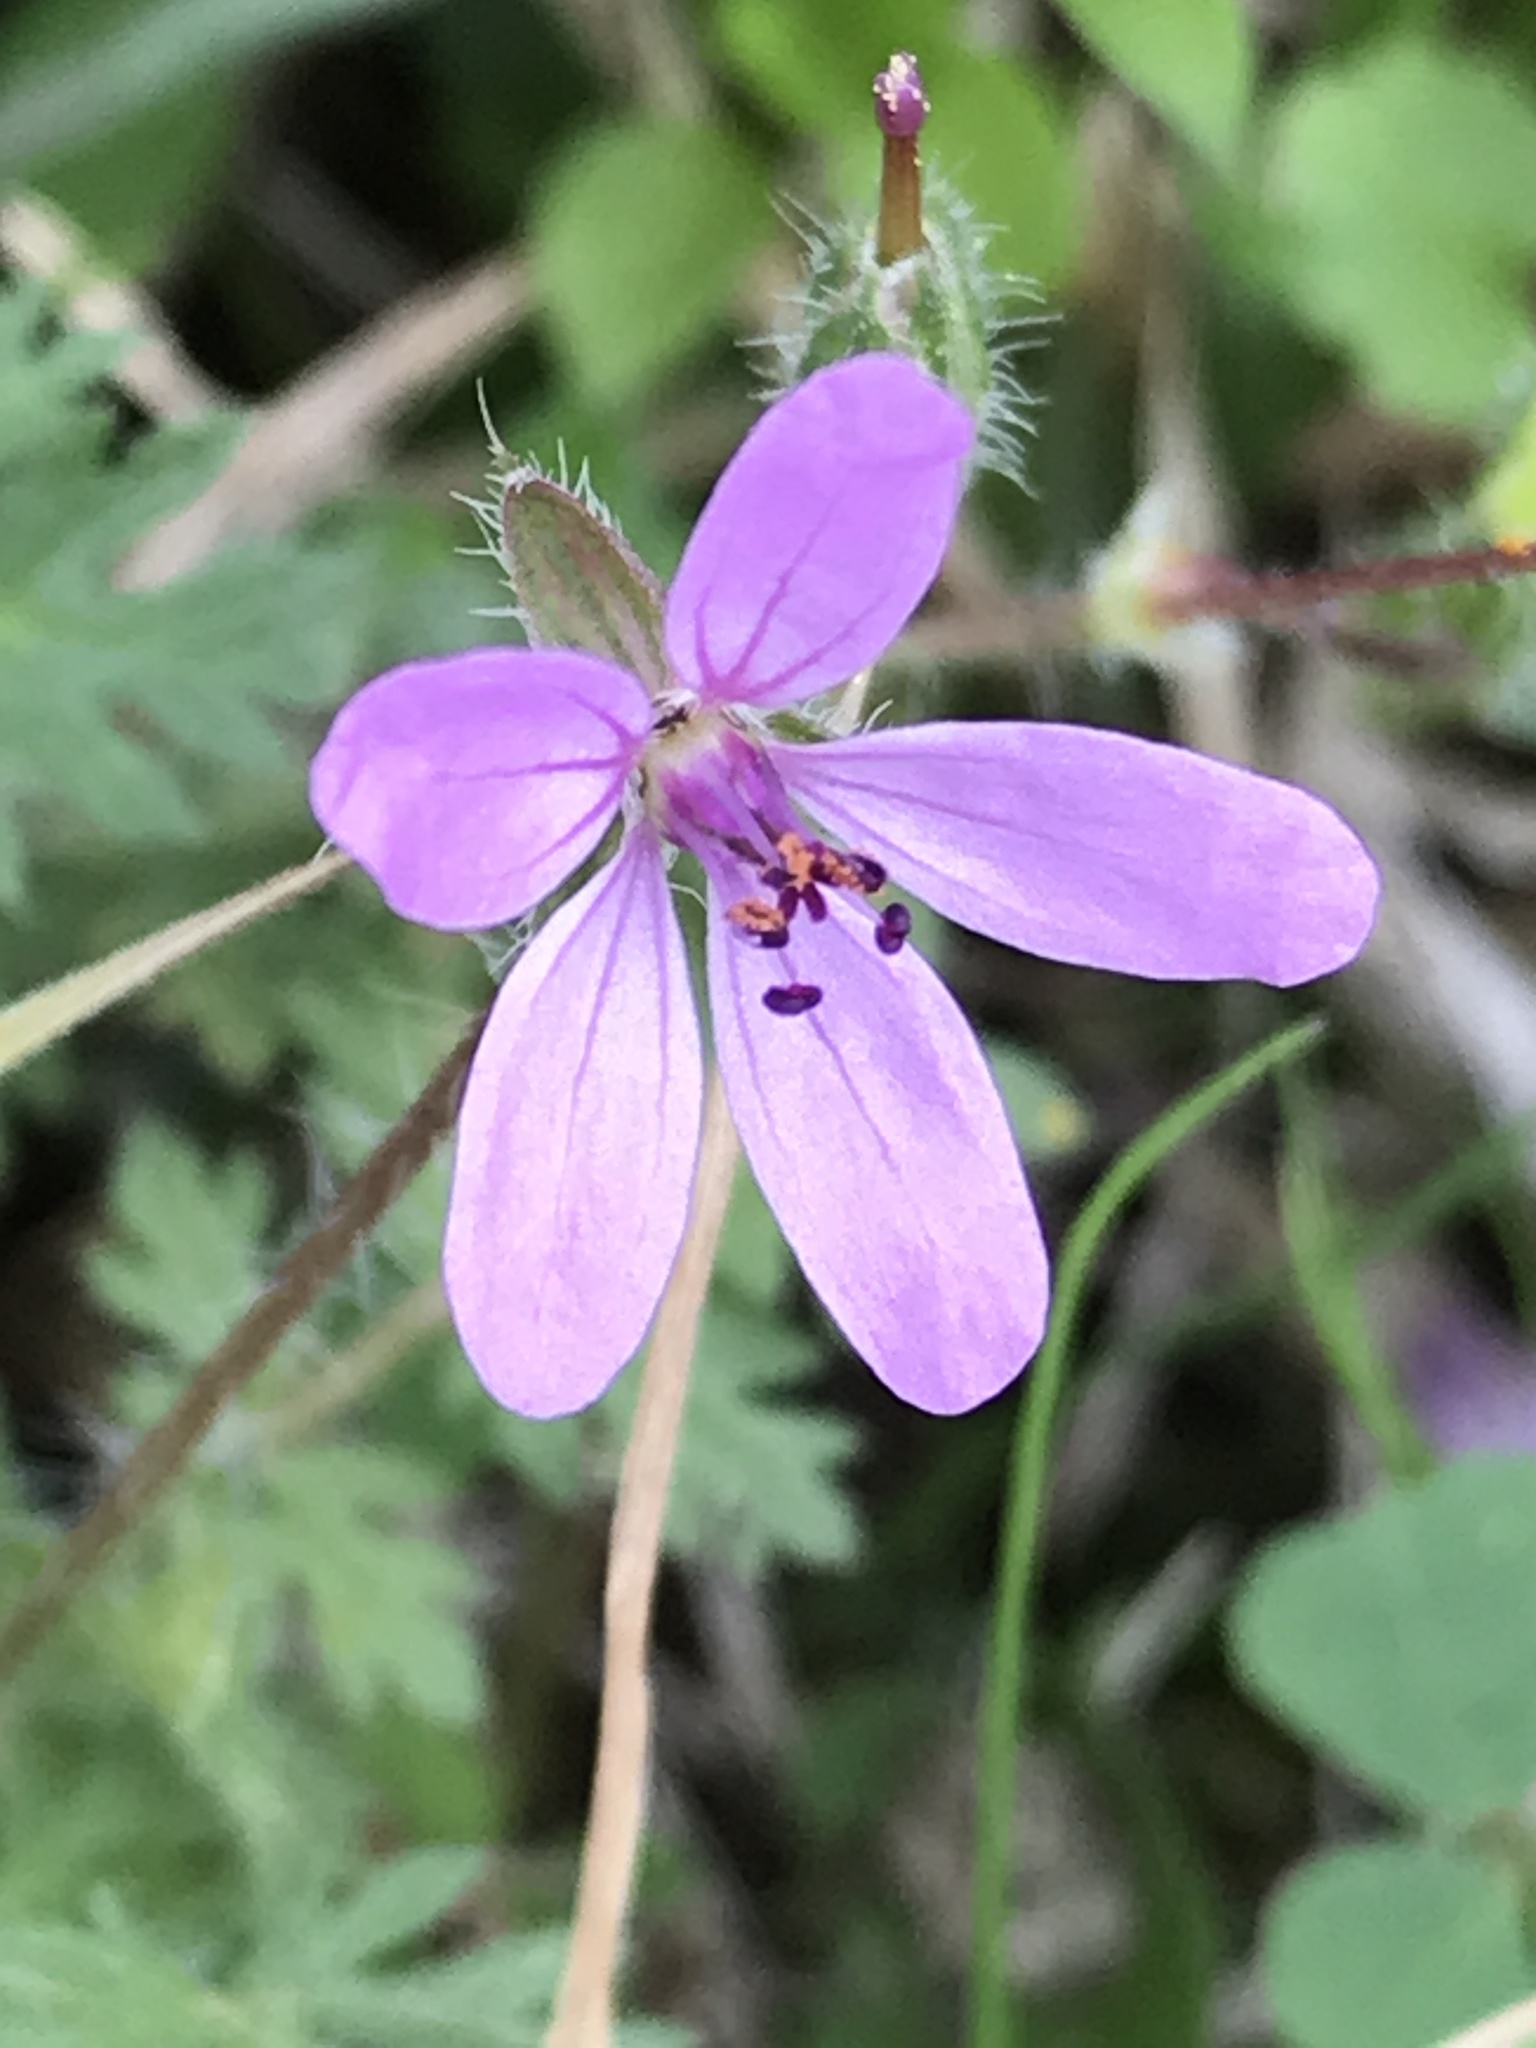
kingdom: Plantae
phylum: Tracheophyta
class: Magnoliopsida
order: Geraniales
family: Geraniaceae
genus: Erodium
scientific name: Erodium cicutarium
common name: Common stork's-bill
